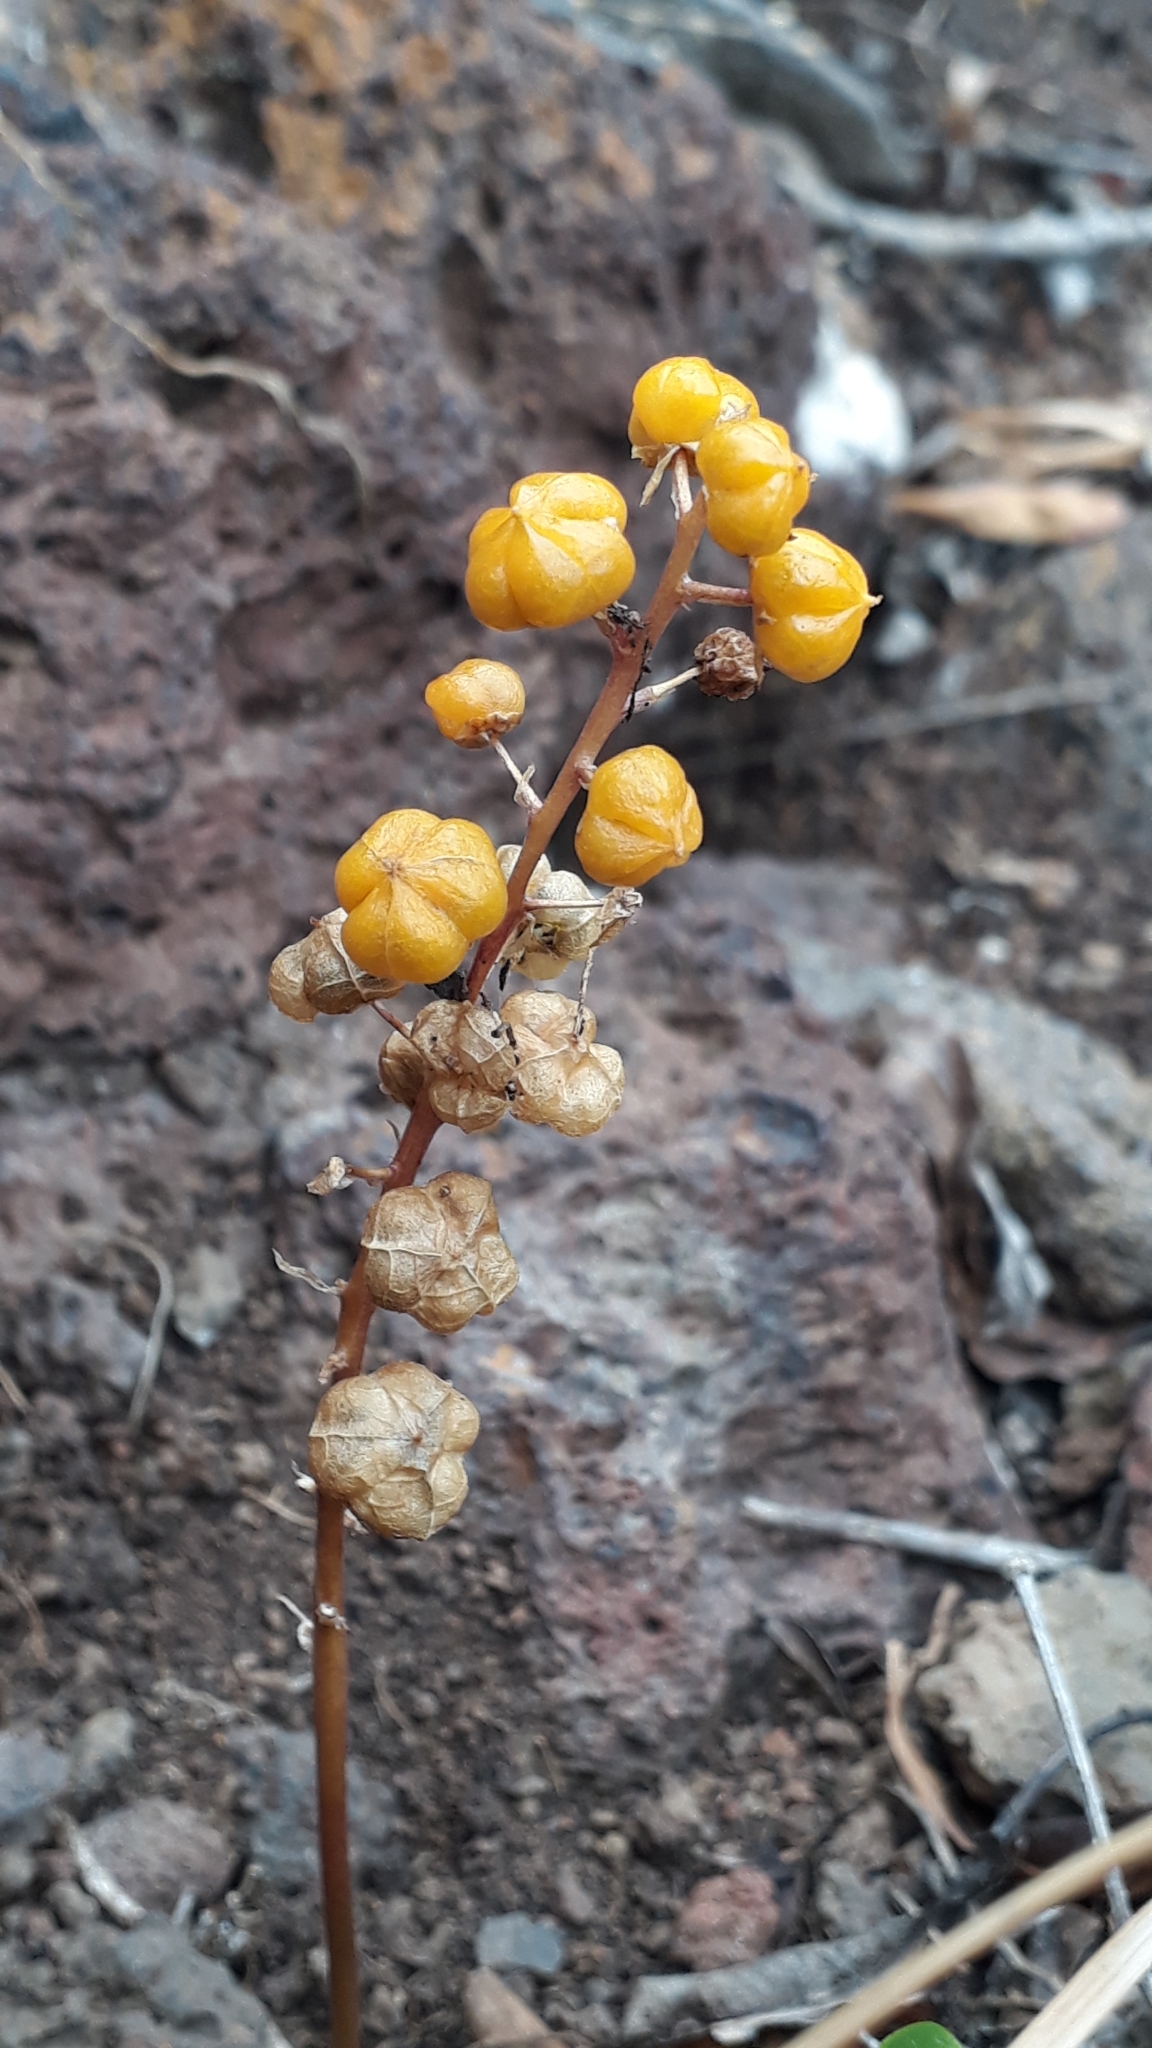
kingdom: Plantae
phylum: Tracheophyta
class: Liliopsida
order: Asparagales
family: Asparagaceae
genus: Scilla
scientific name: Scilla haemorrhoidalis
